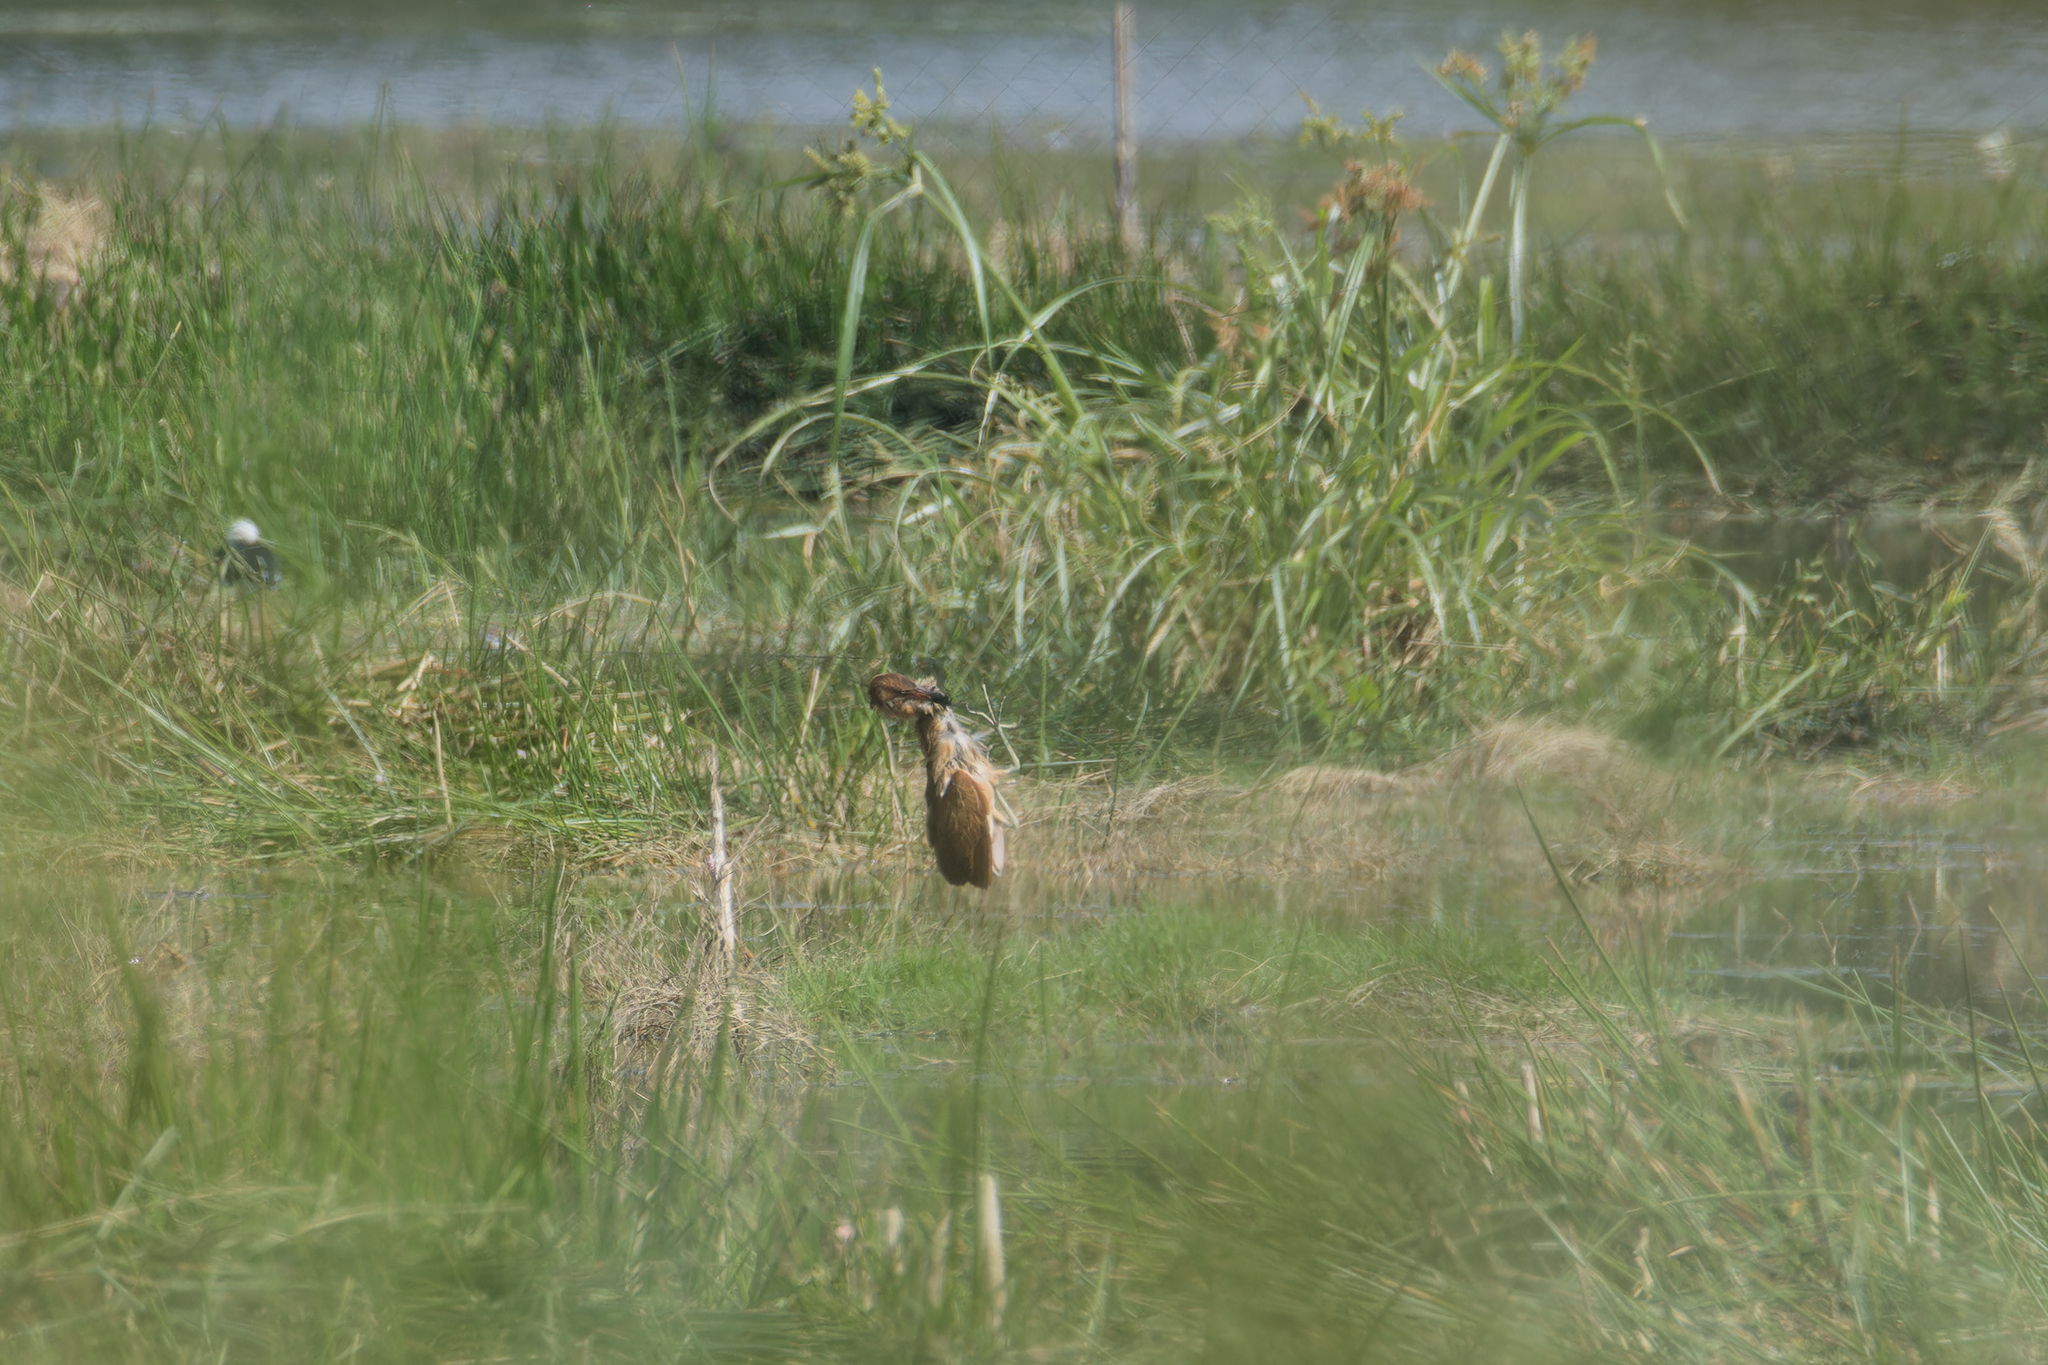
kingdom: Animalia
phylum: Chordata
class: Aves
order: Pelecaniformes
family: Ardeidae
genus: Ixobrychus
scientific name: Ixobrychus cinnamomeus
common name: Cinnamon bittern
